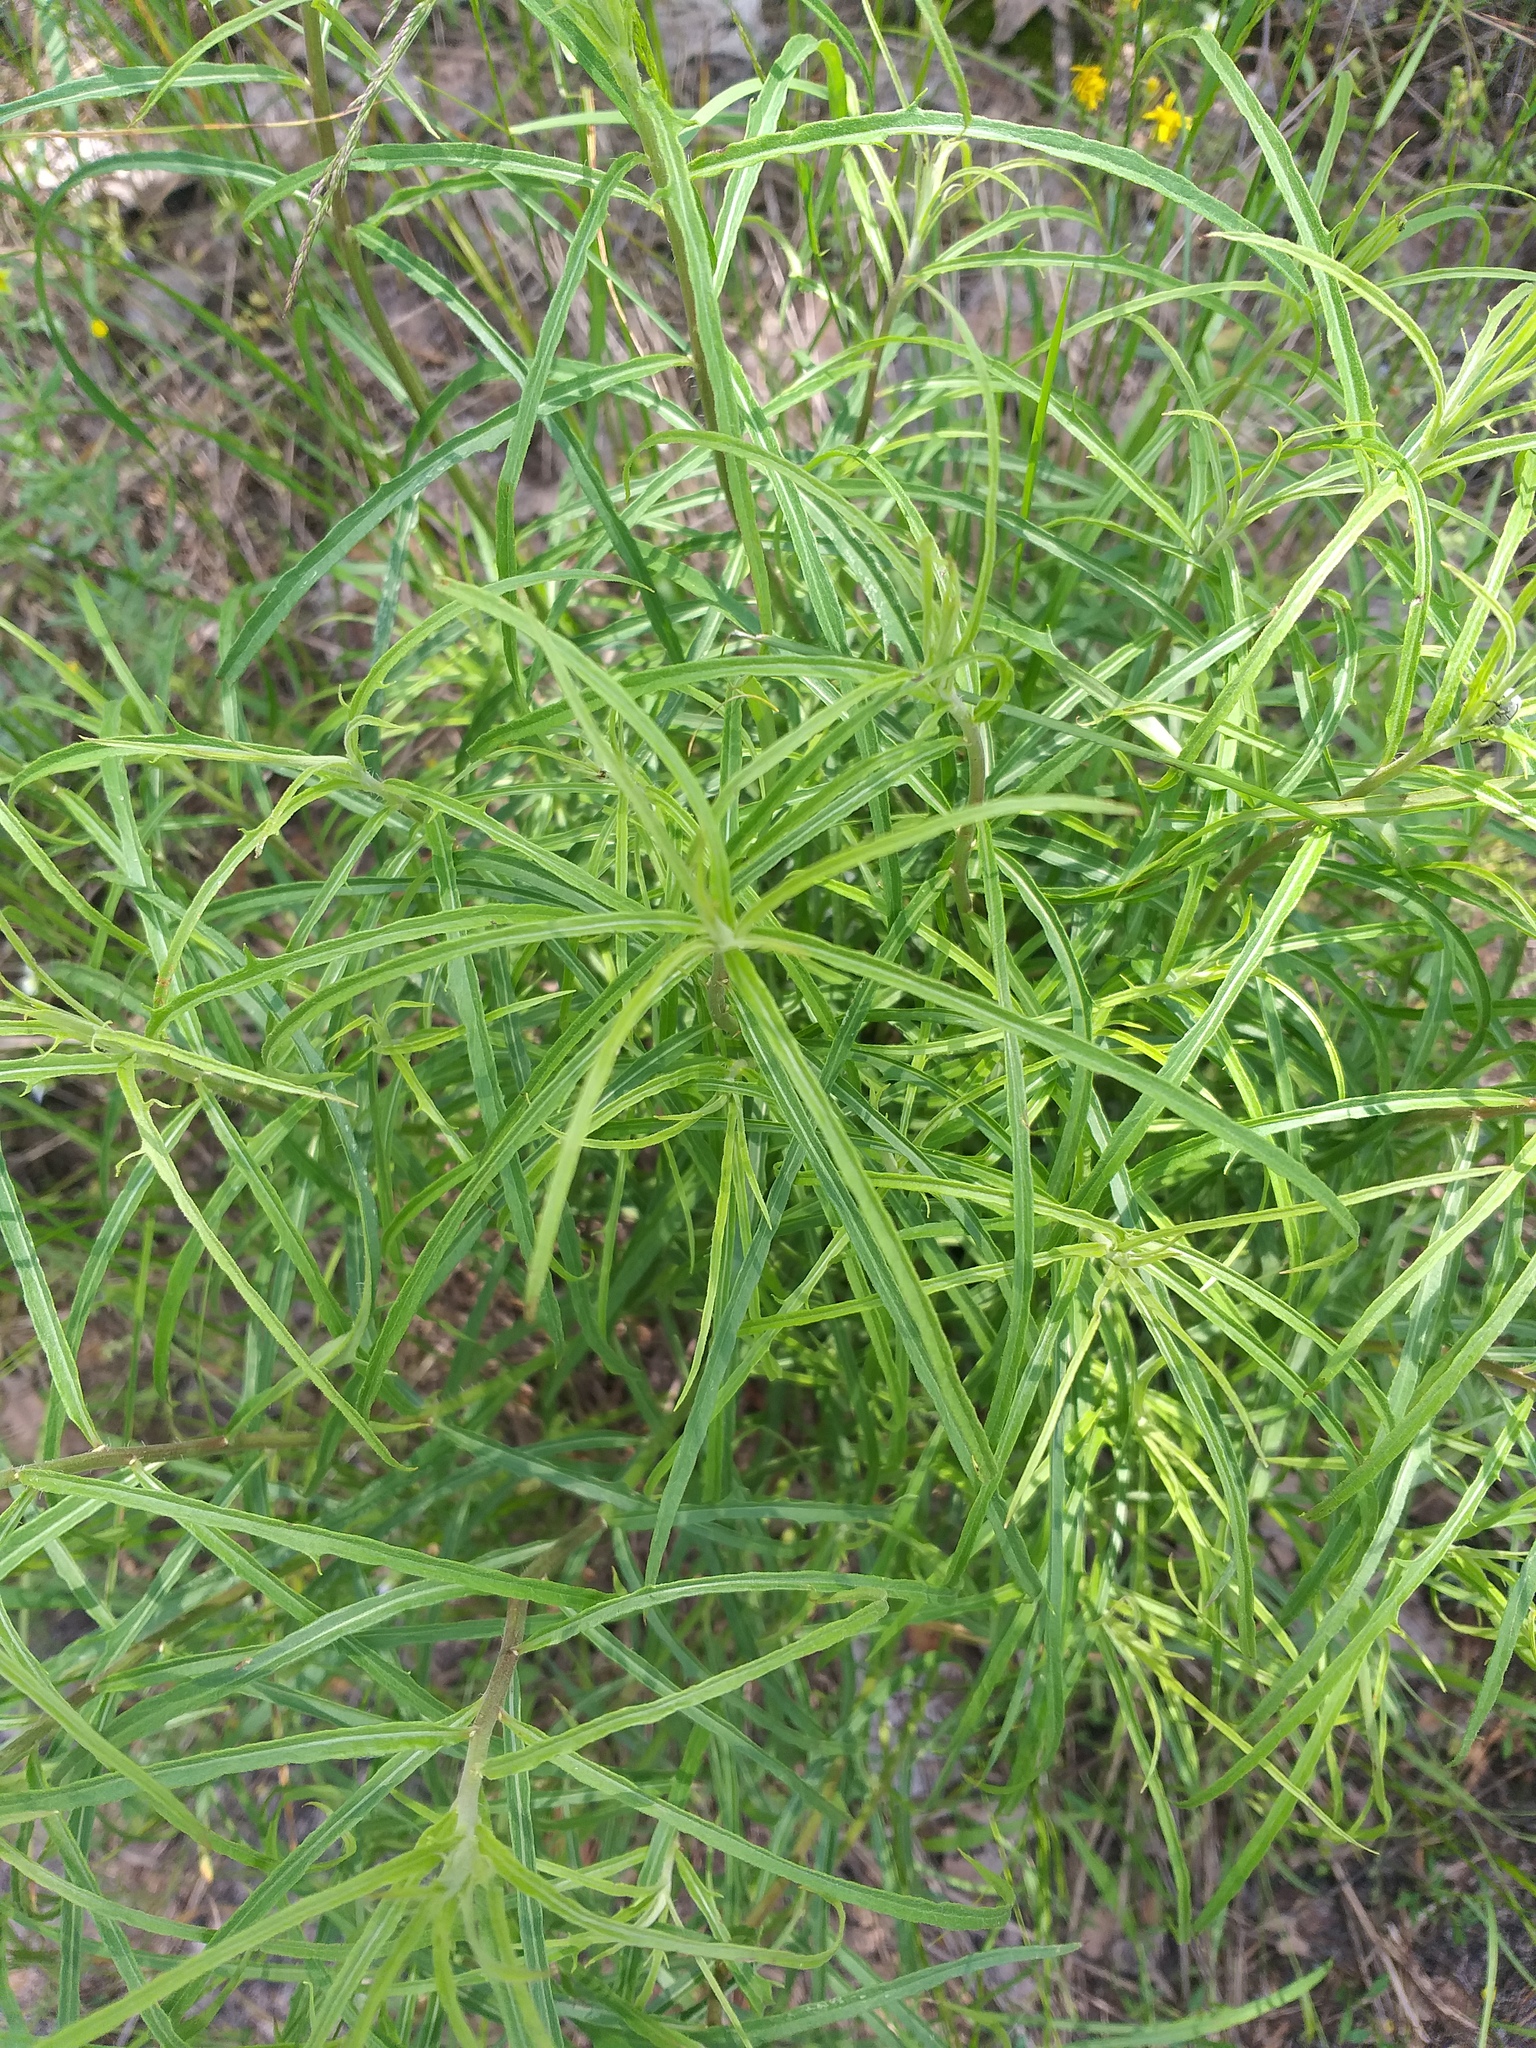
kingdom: Plantae
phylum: Tracheophyta
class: Magnoliopsida
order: Asterales
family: Asteraceae
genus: Hieracium
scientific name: Hieracium umbellatum
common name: Northern hawkweed
